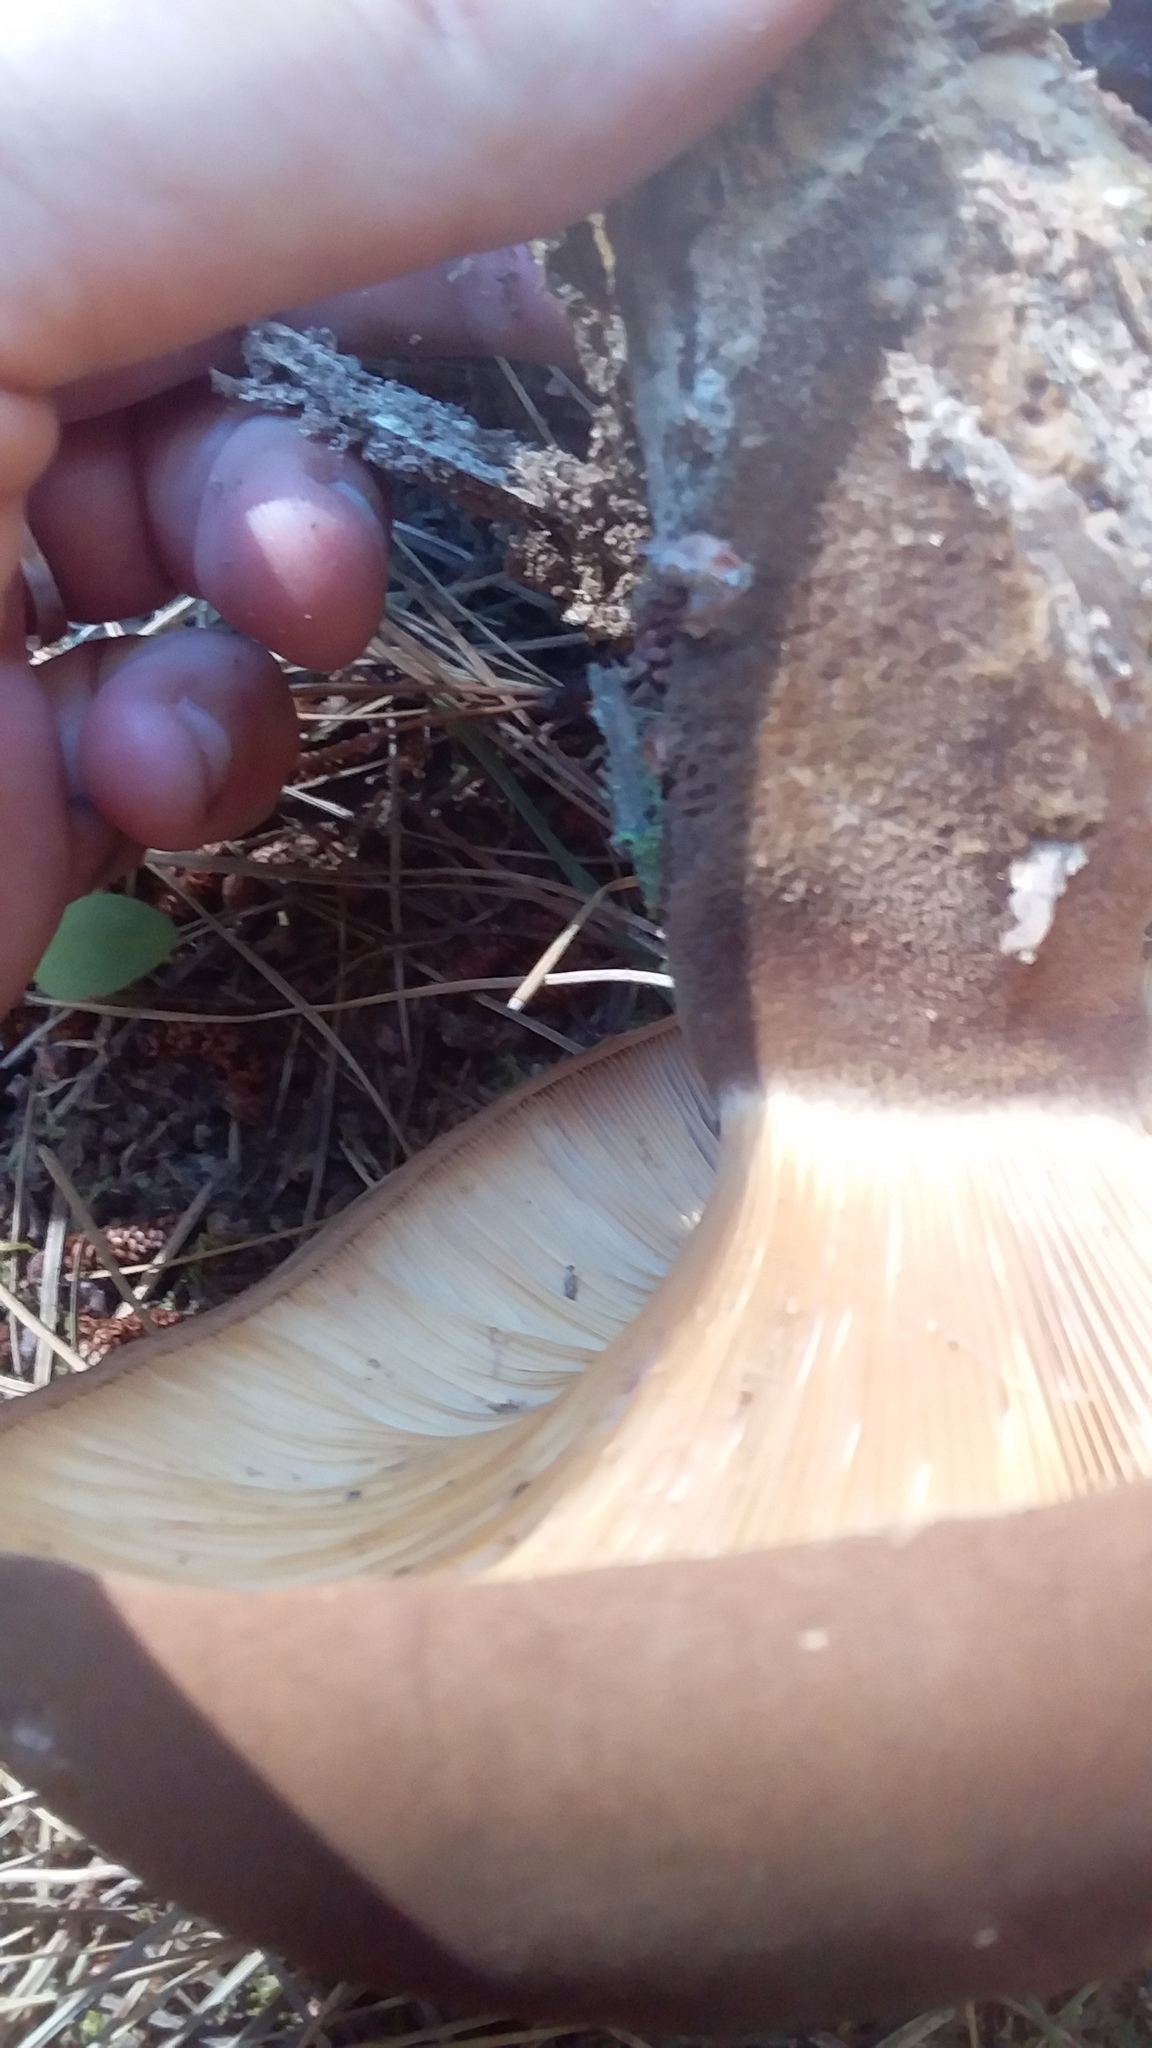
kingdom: Fungi
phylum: Basidiomycota
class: Agaricomycetes
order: Boletales
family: Tapinellaceae
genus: Tapinella
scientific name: Tapinella atrotomentosa
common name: Velvet rollrim
